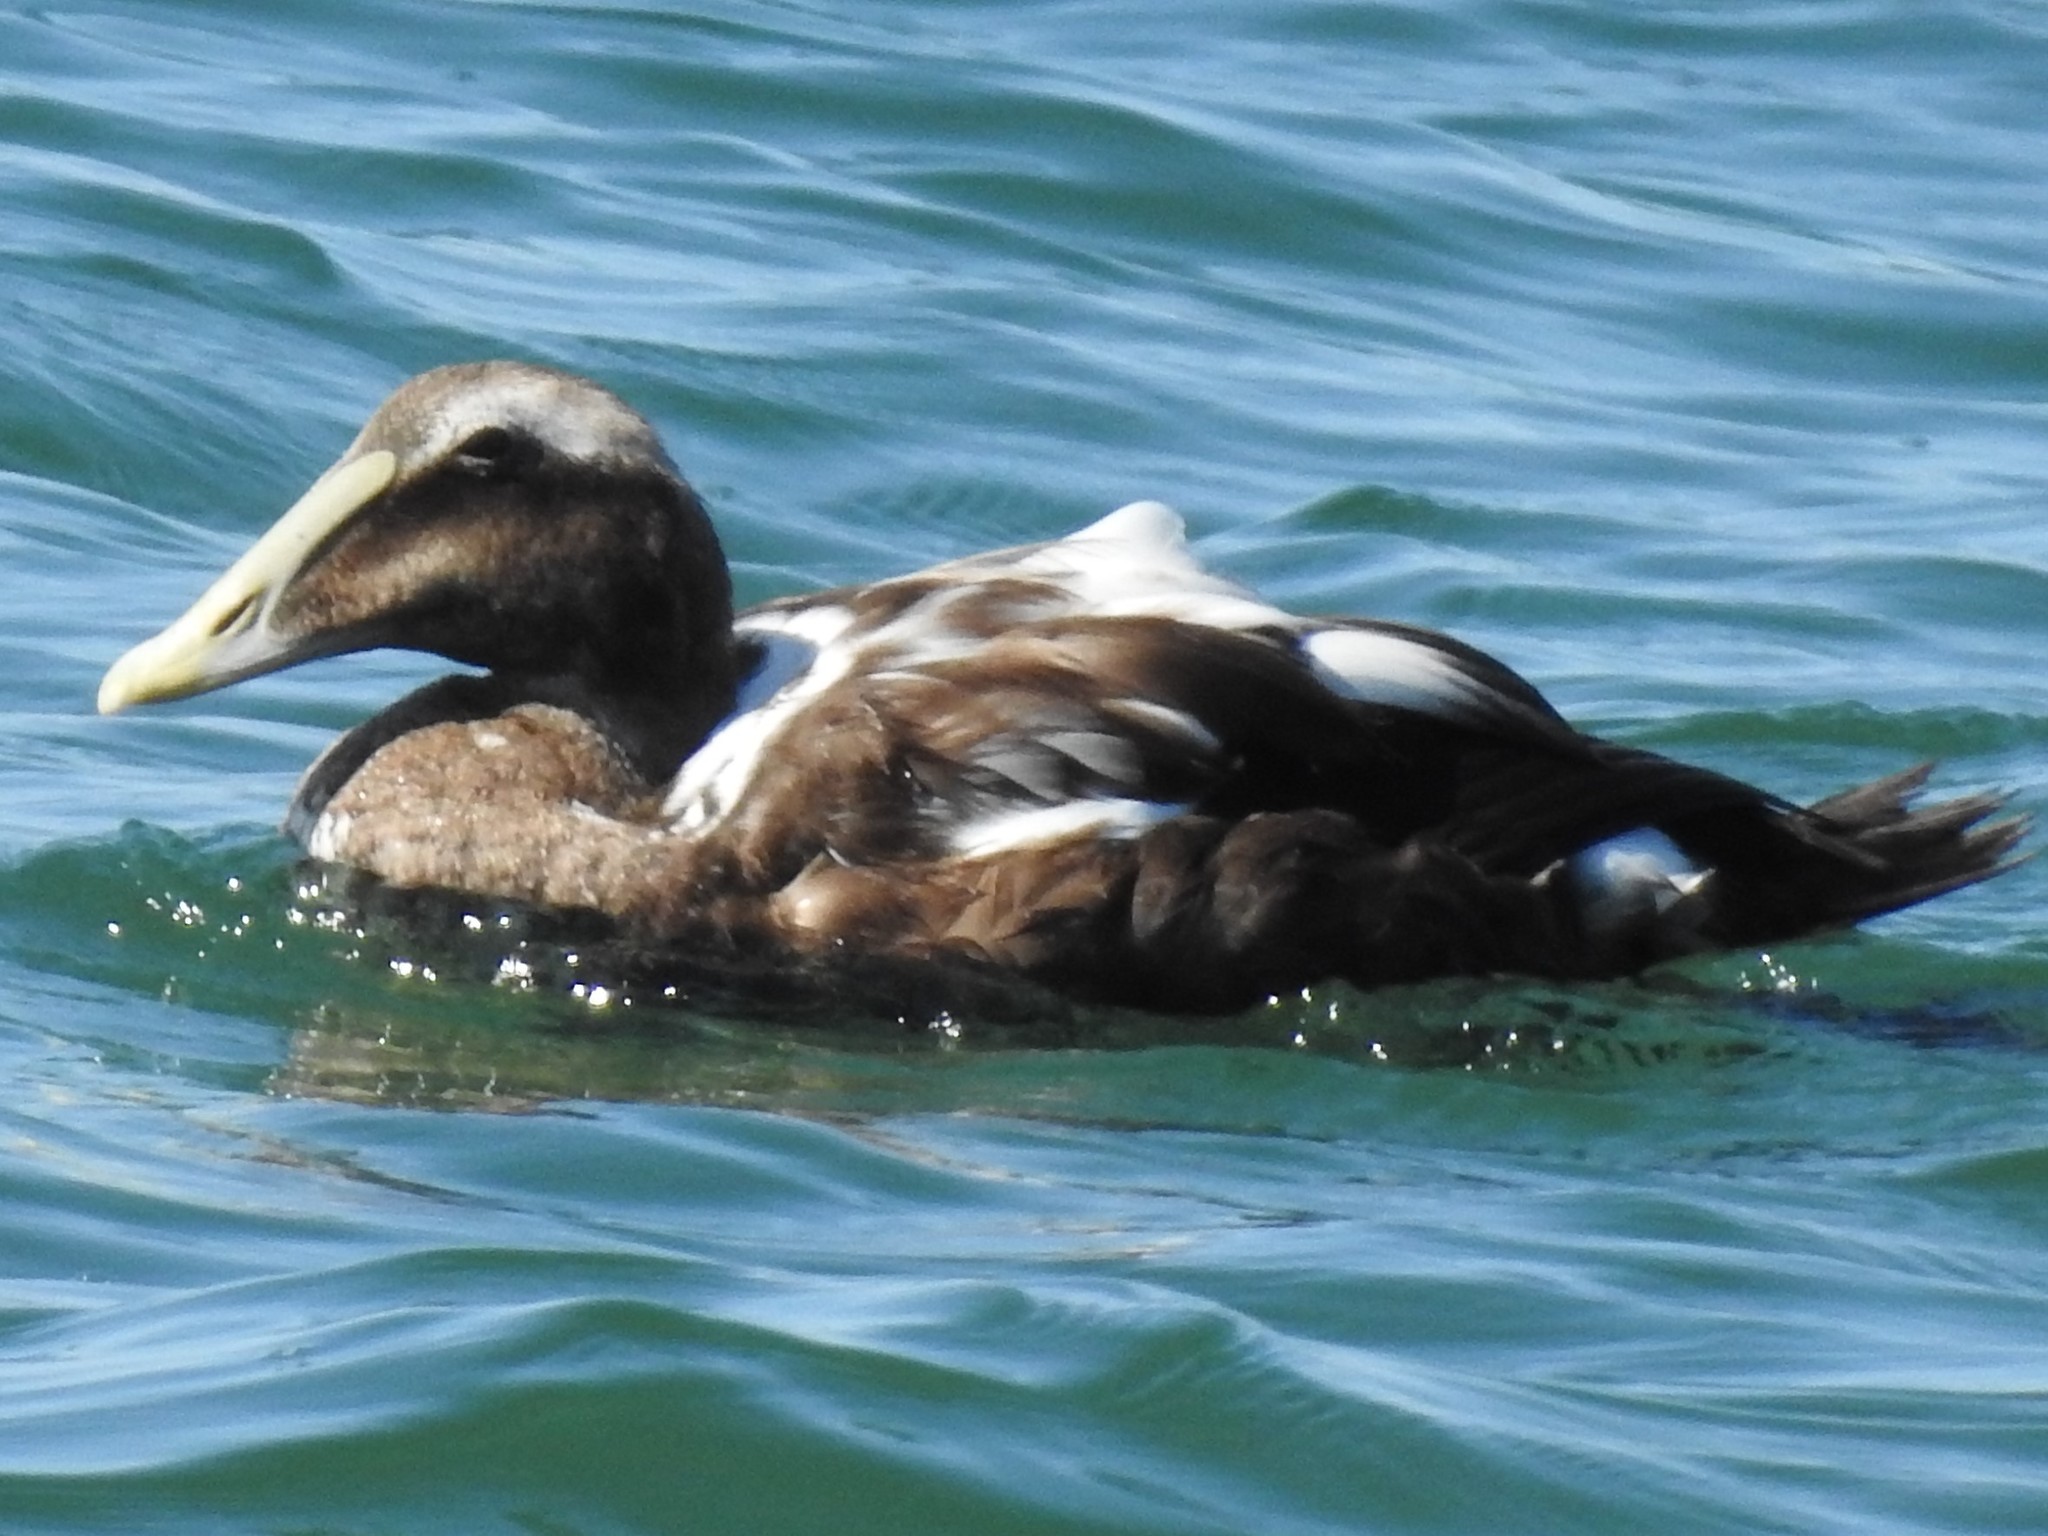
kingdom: Animalia
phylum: Chordata
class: Aves
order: Anseriformes
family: Anatidae
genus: Somateria
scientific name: Somateria mollissima
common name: Common eider
